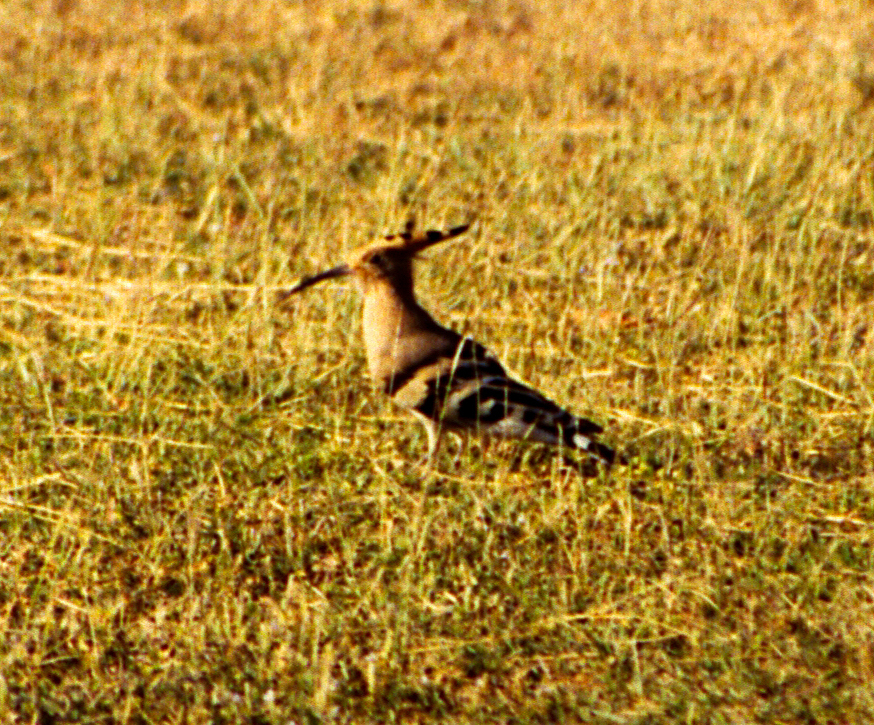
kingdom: Animalia
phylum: Chordata
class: Aves
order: Bucerotiformes
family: Upupidae
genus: Upupa
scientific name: Upupa epops
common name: Eurasian hoopoe
